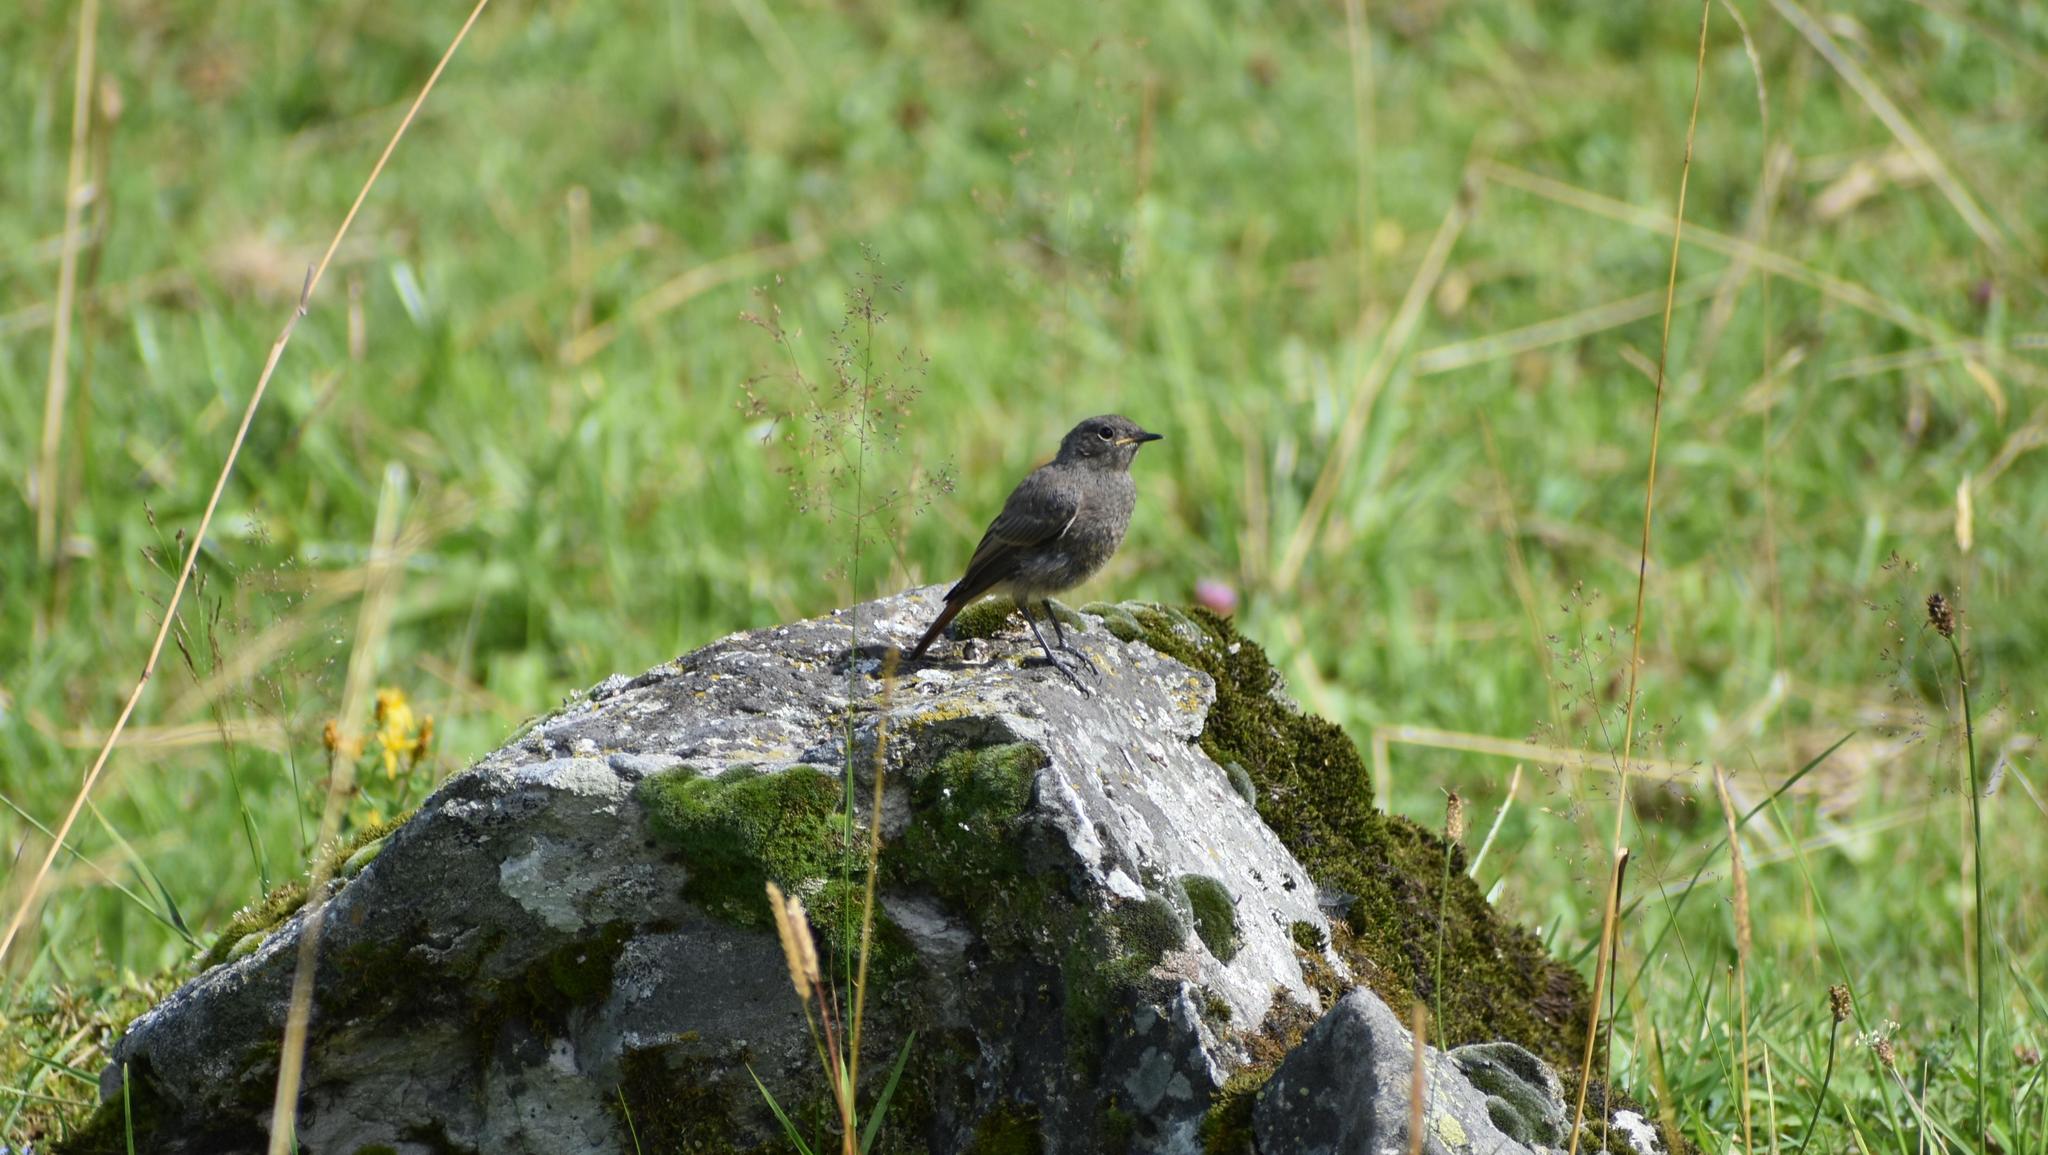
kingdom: Animalia
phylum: Chordata
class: Aves
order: Passeriformes
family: Muscicapidae
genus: Phoenicurus
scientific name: Phoenicurus ochruros
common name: Black redstart
